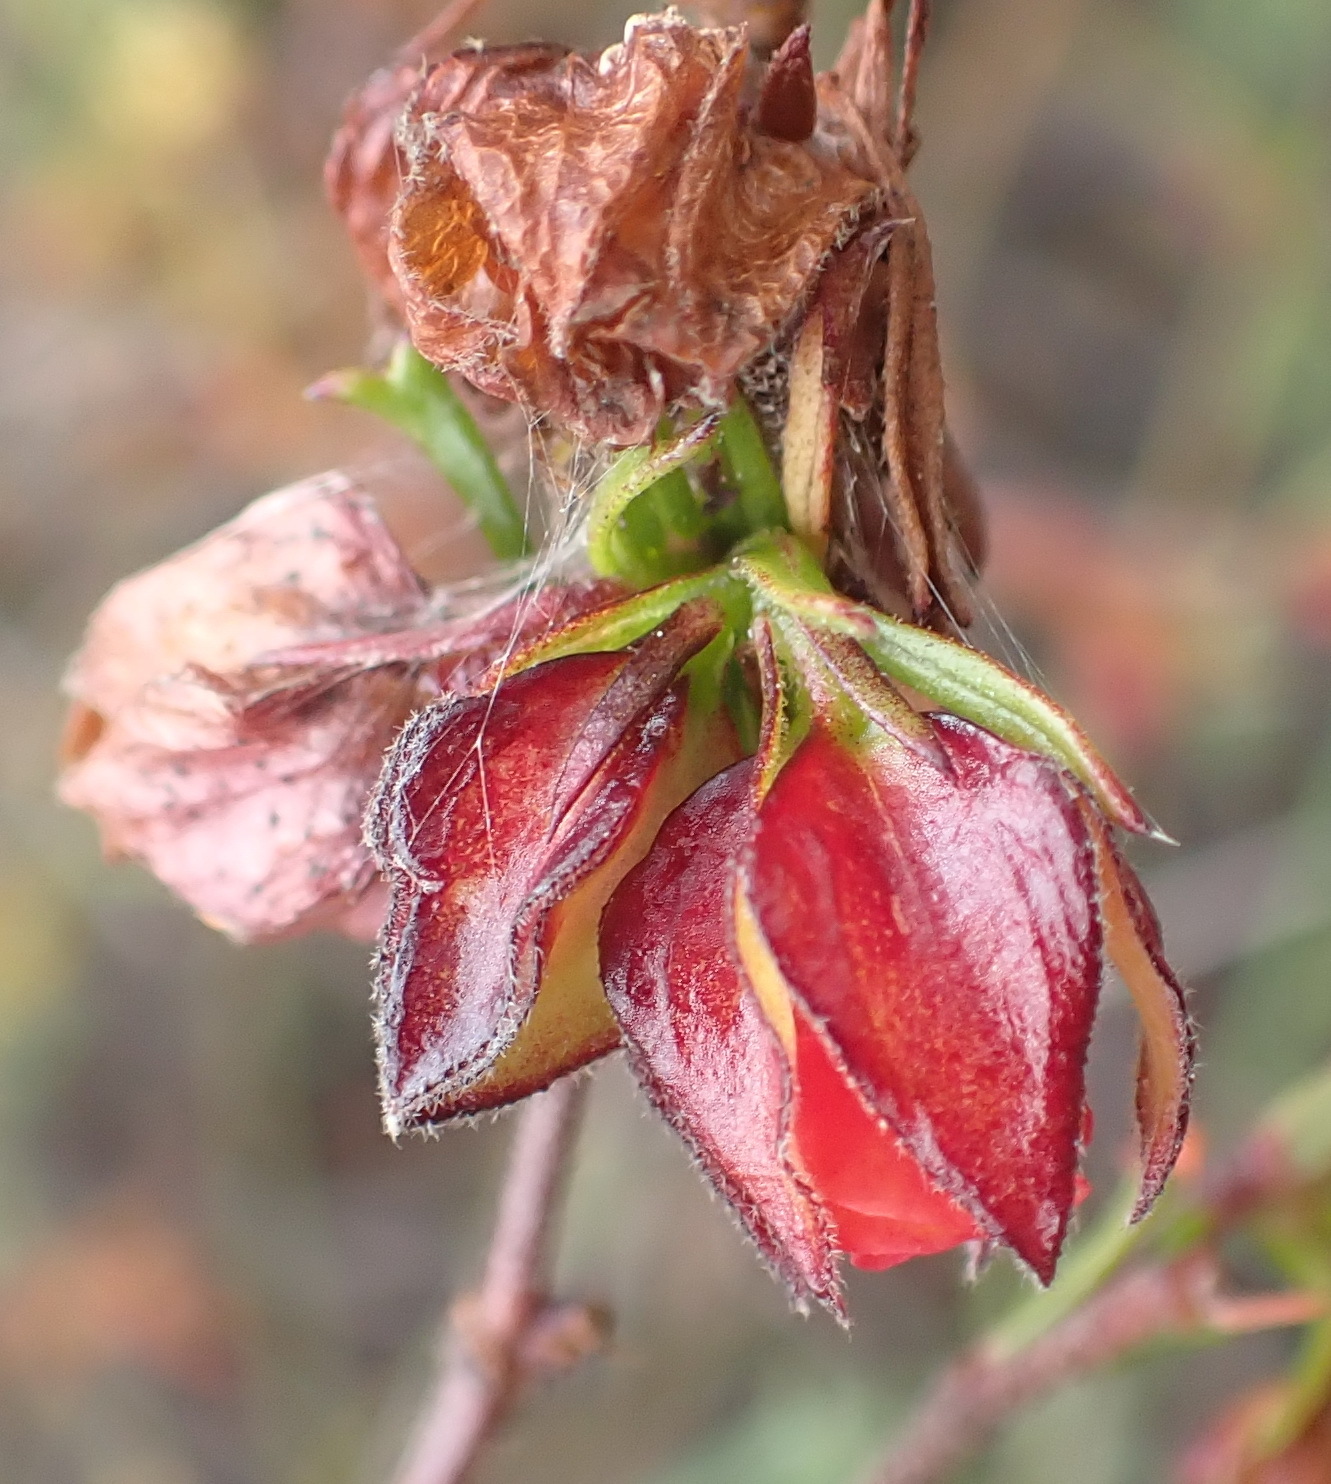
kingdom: Plantae
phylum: Tracheophyta
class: Magnoliopsida
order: Malvales
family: Malvaceae
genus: Hermannia
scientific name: Hermannia angularis
